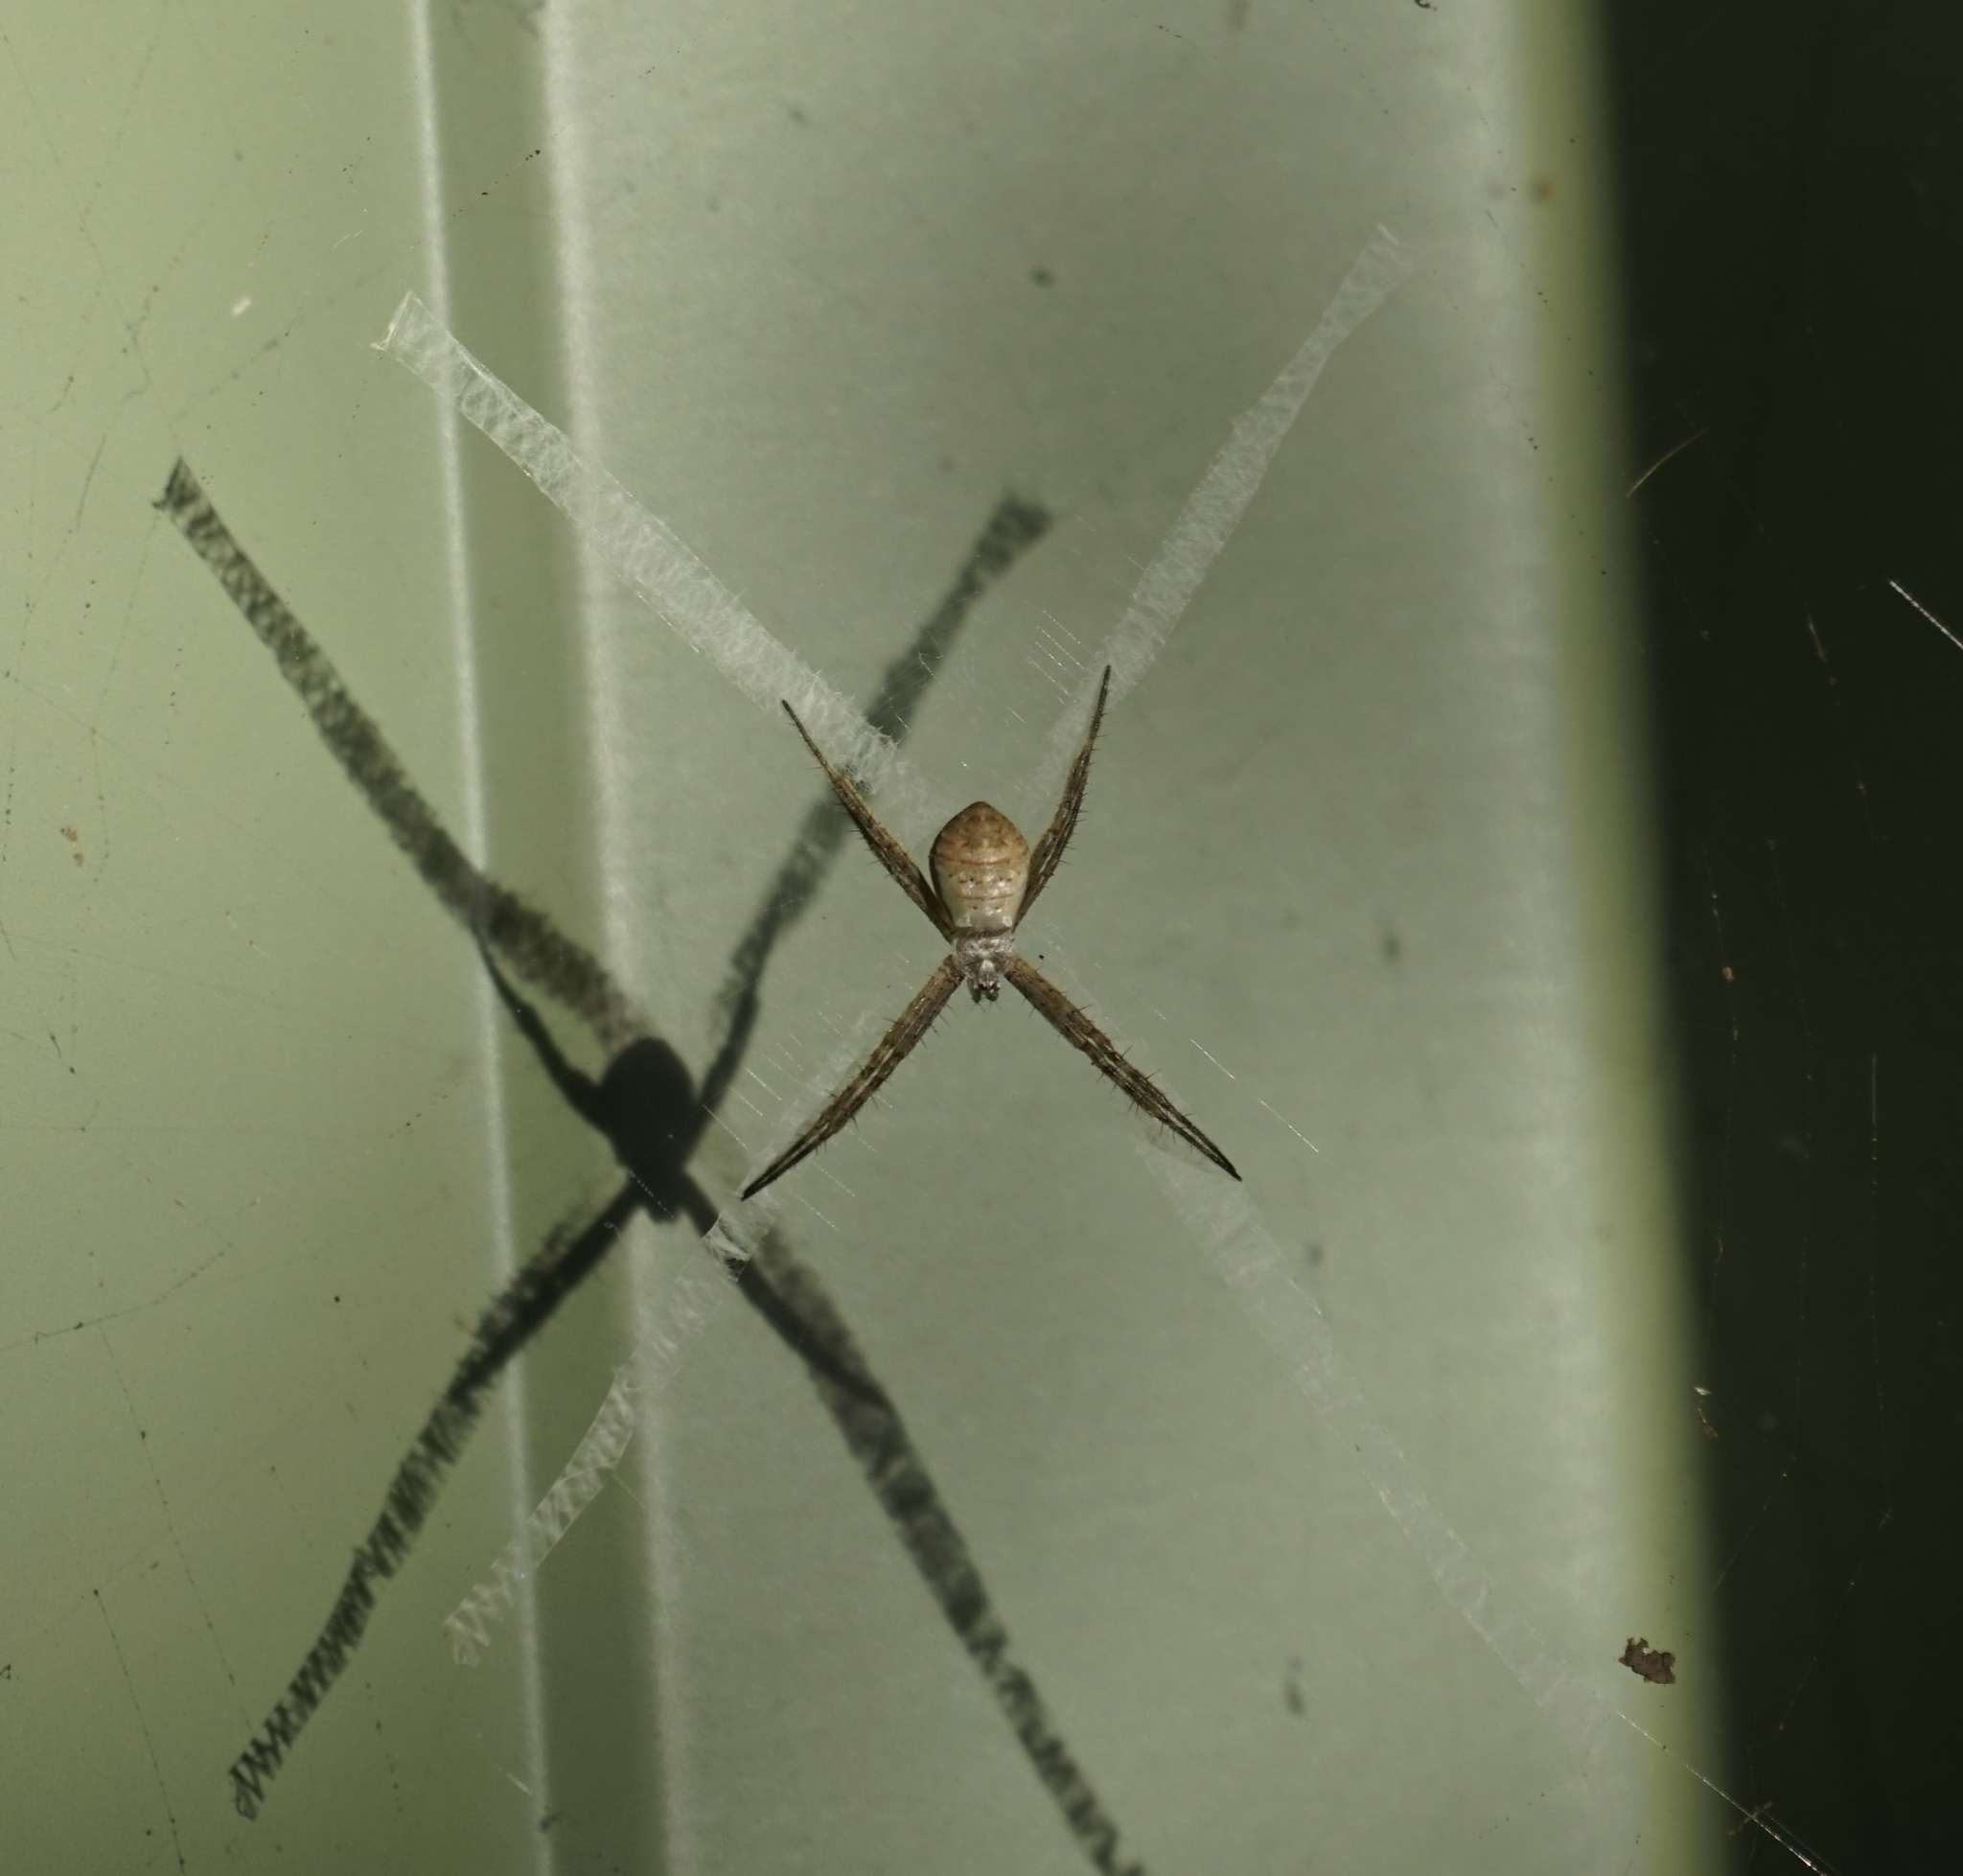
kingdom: Animalia
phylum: Arthropoda
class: Arachnida
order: Araneae
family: Araneidae
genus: Argiope
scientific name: Argiope keyserlingi
